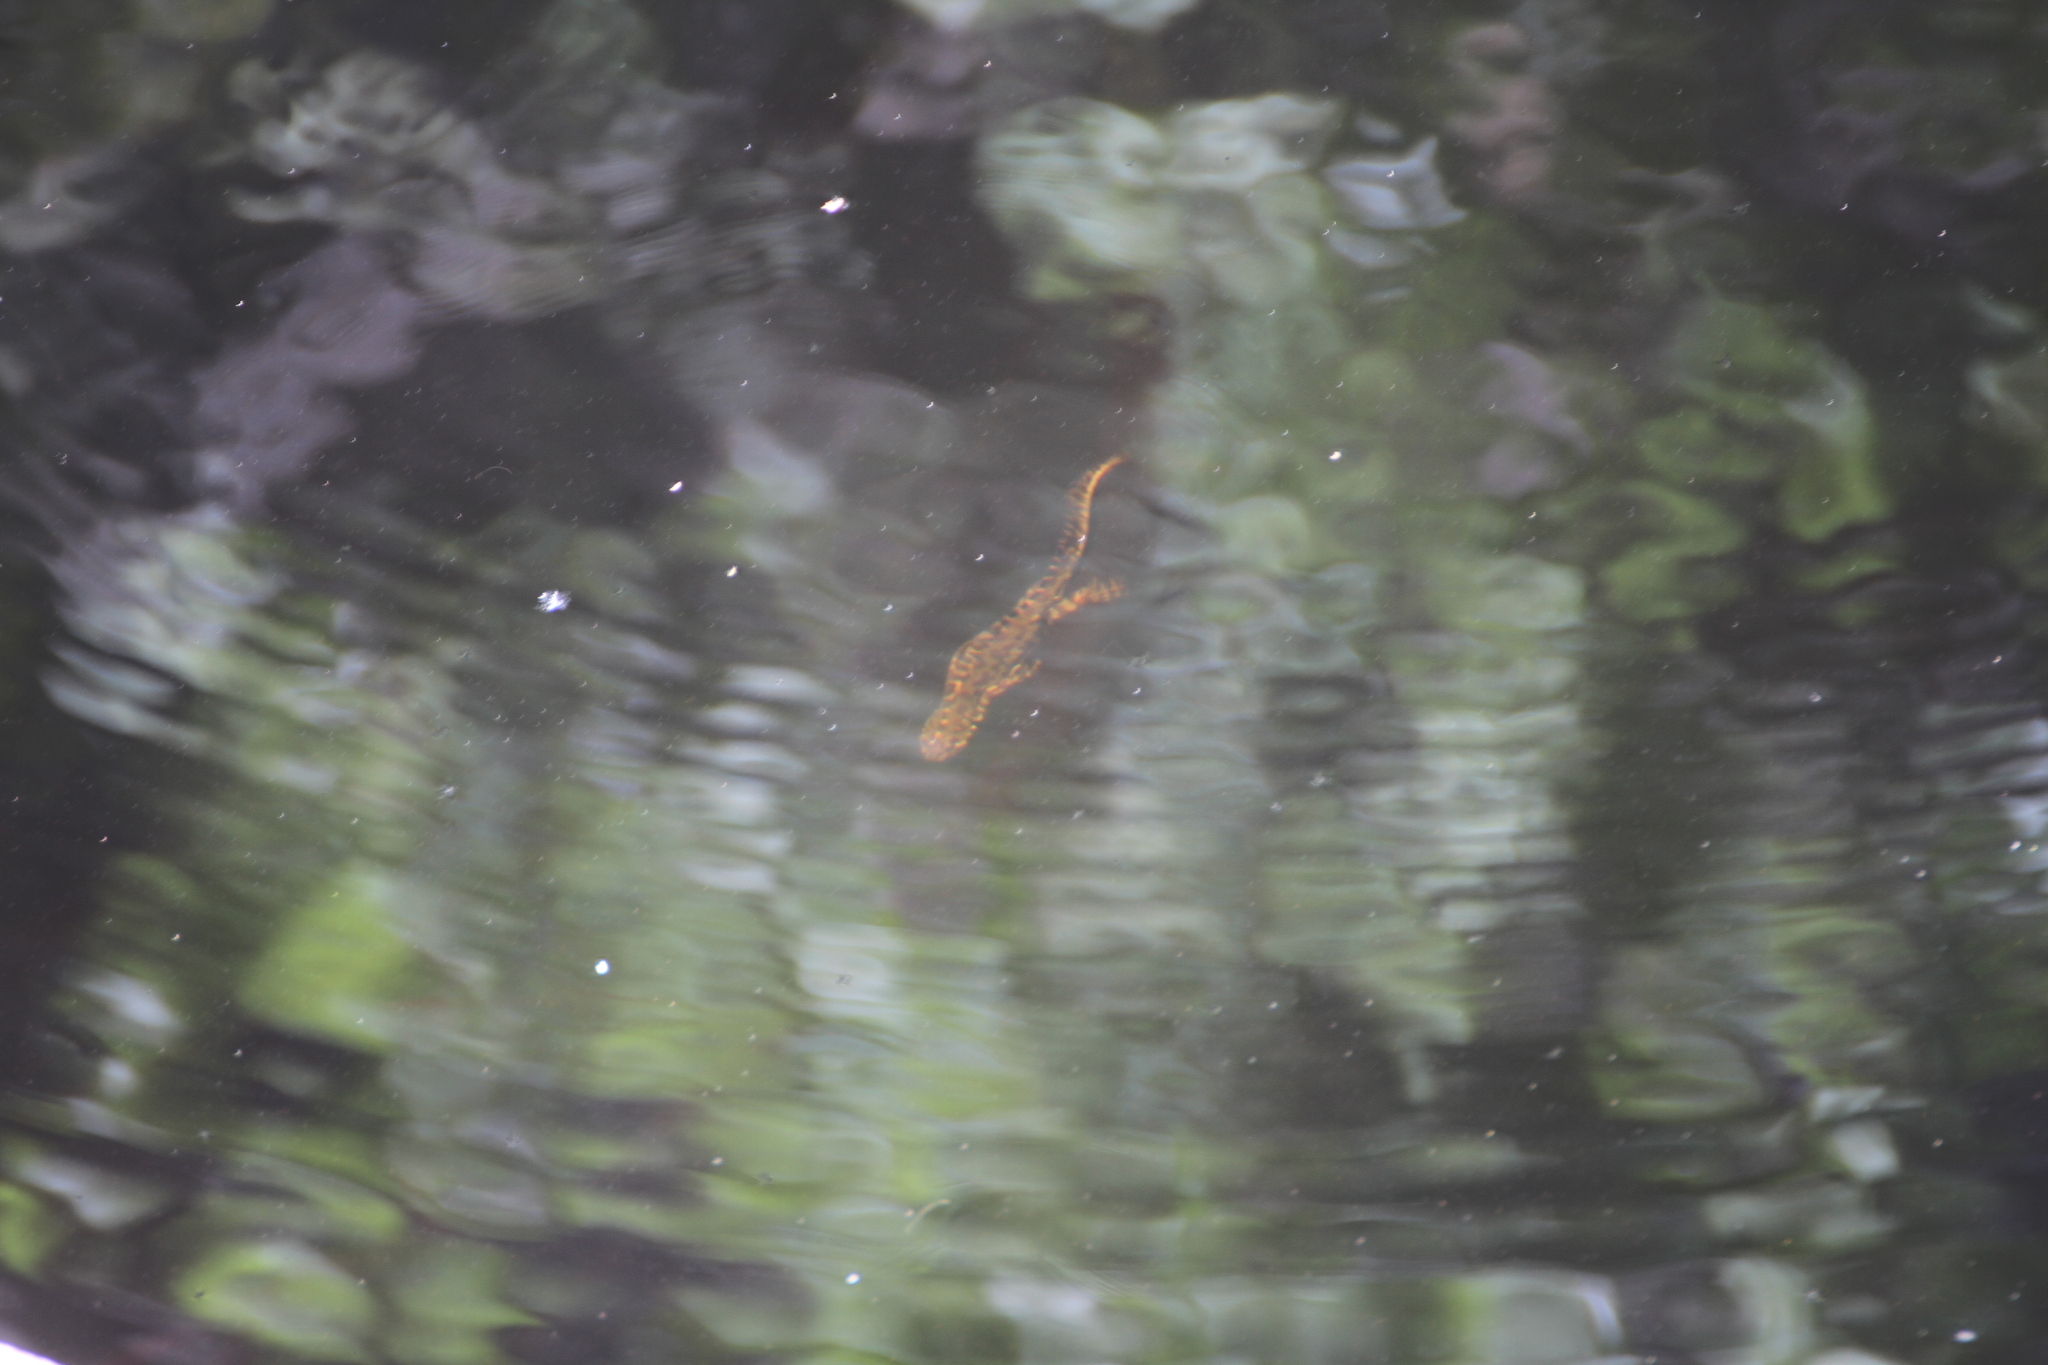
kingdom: Animalia
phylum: Chordata
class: Amphibia
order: Caudata
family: Salamandridae
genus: Triturus
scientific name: Triturus marmoratus
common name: Marbled newt
